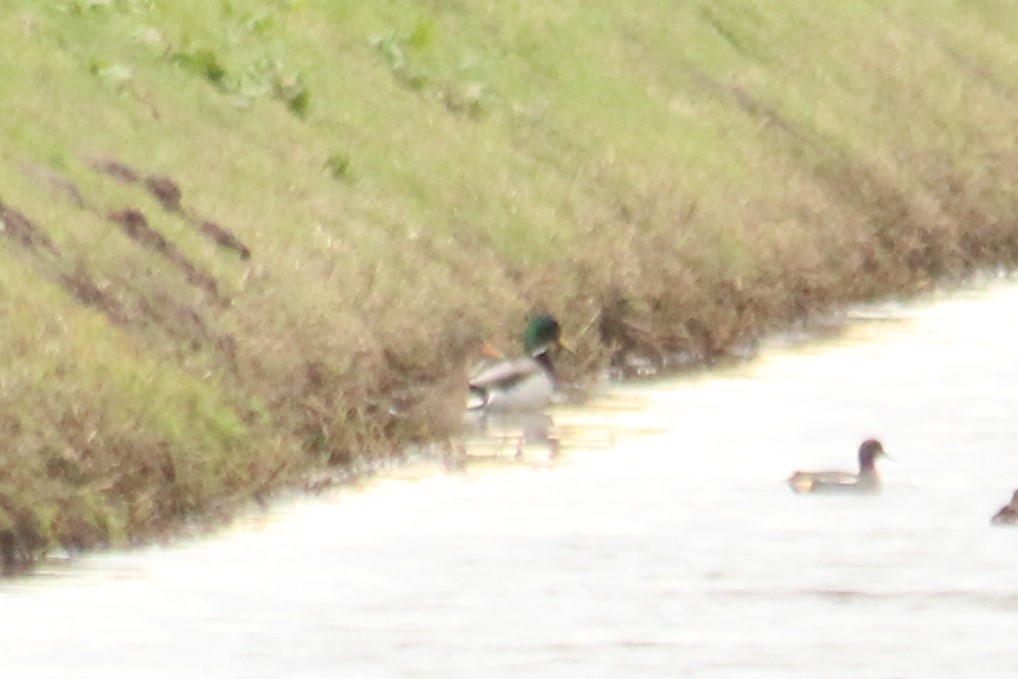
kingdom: Animalia
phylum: Chordata
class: Aves
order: Anseriformes
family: Anatidae
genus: Anas
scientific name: Anas platyrhynchos
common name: Mallard
